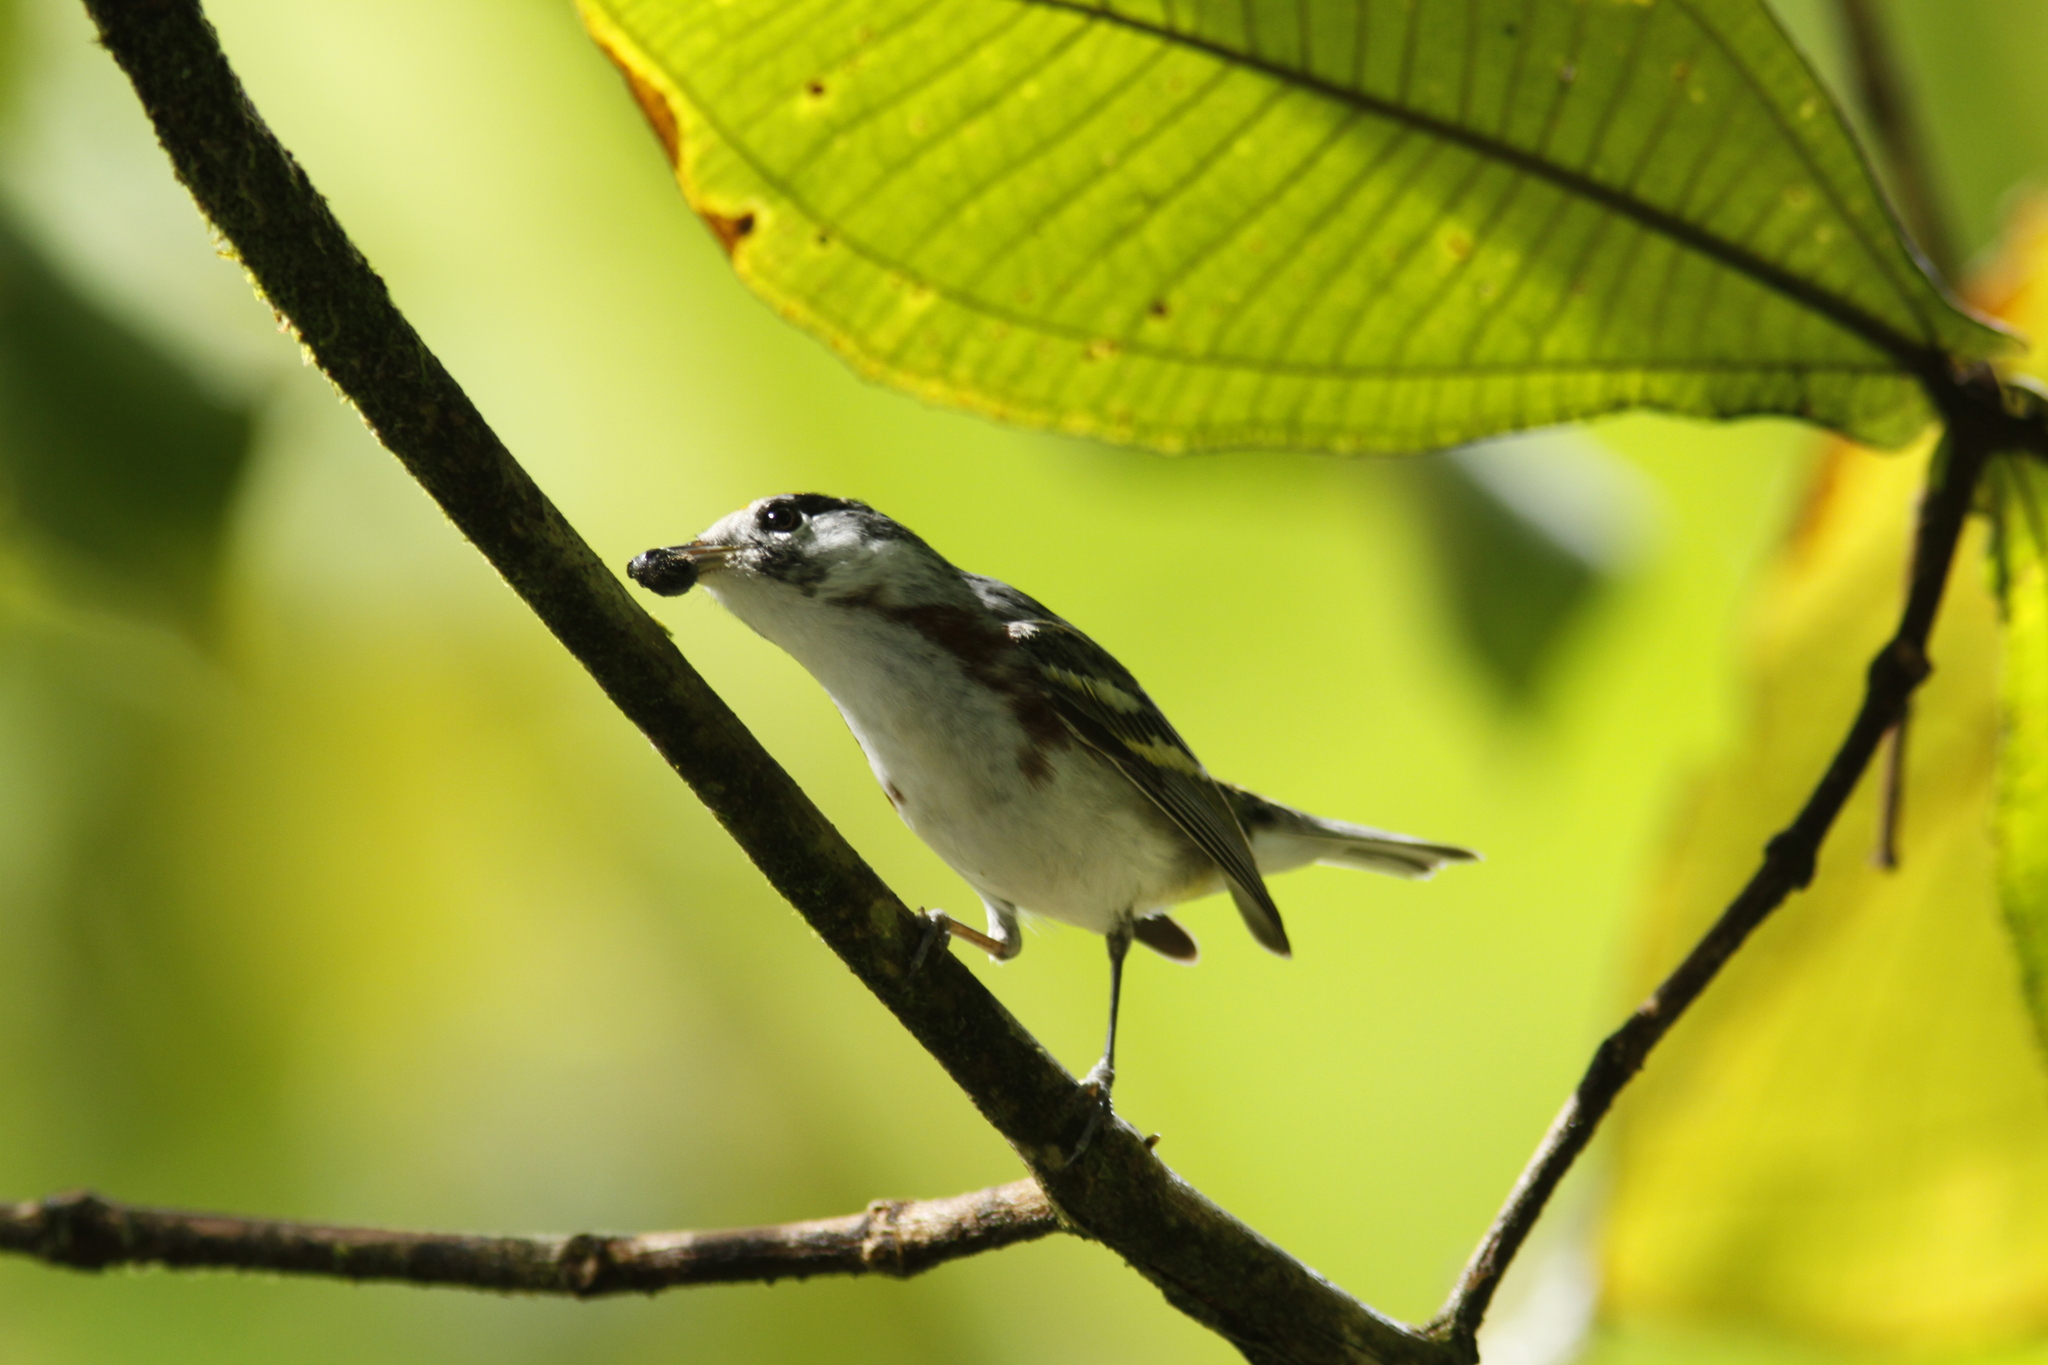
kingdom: Animalia
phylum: Chordata
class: Aves
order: Passeriformes
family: Parulidae
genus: Setophaga
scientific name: Setophaga pensylvanica
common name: Chestnut-sided warbler
